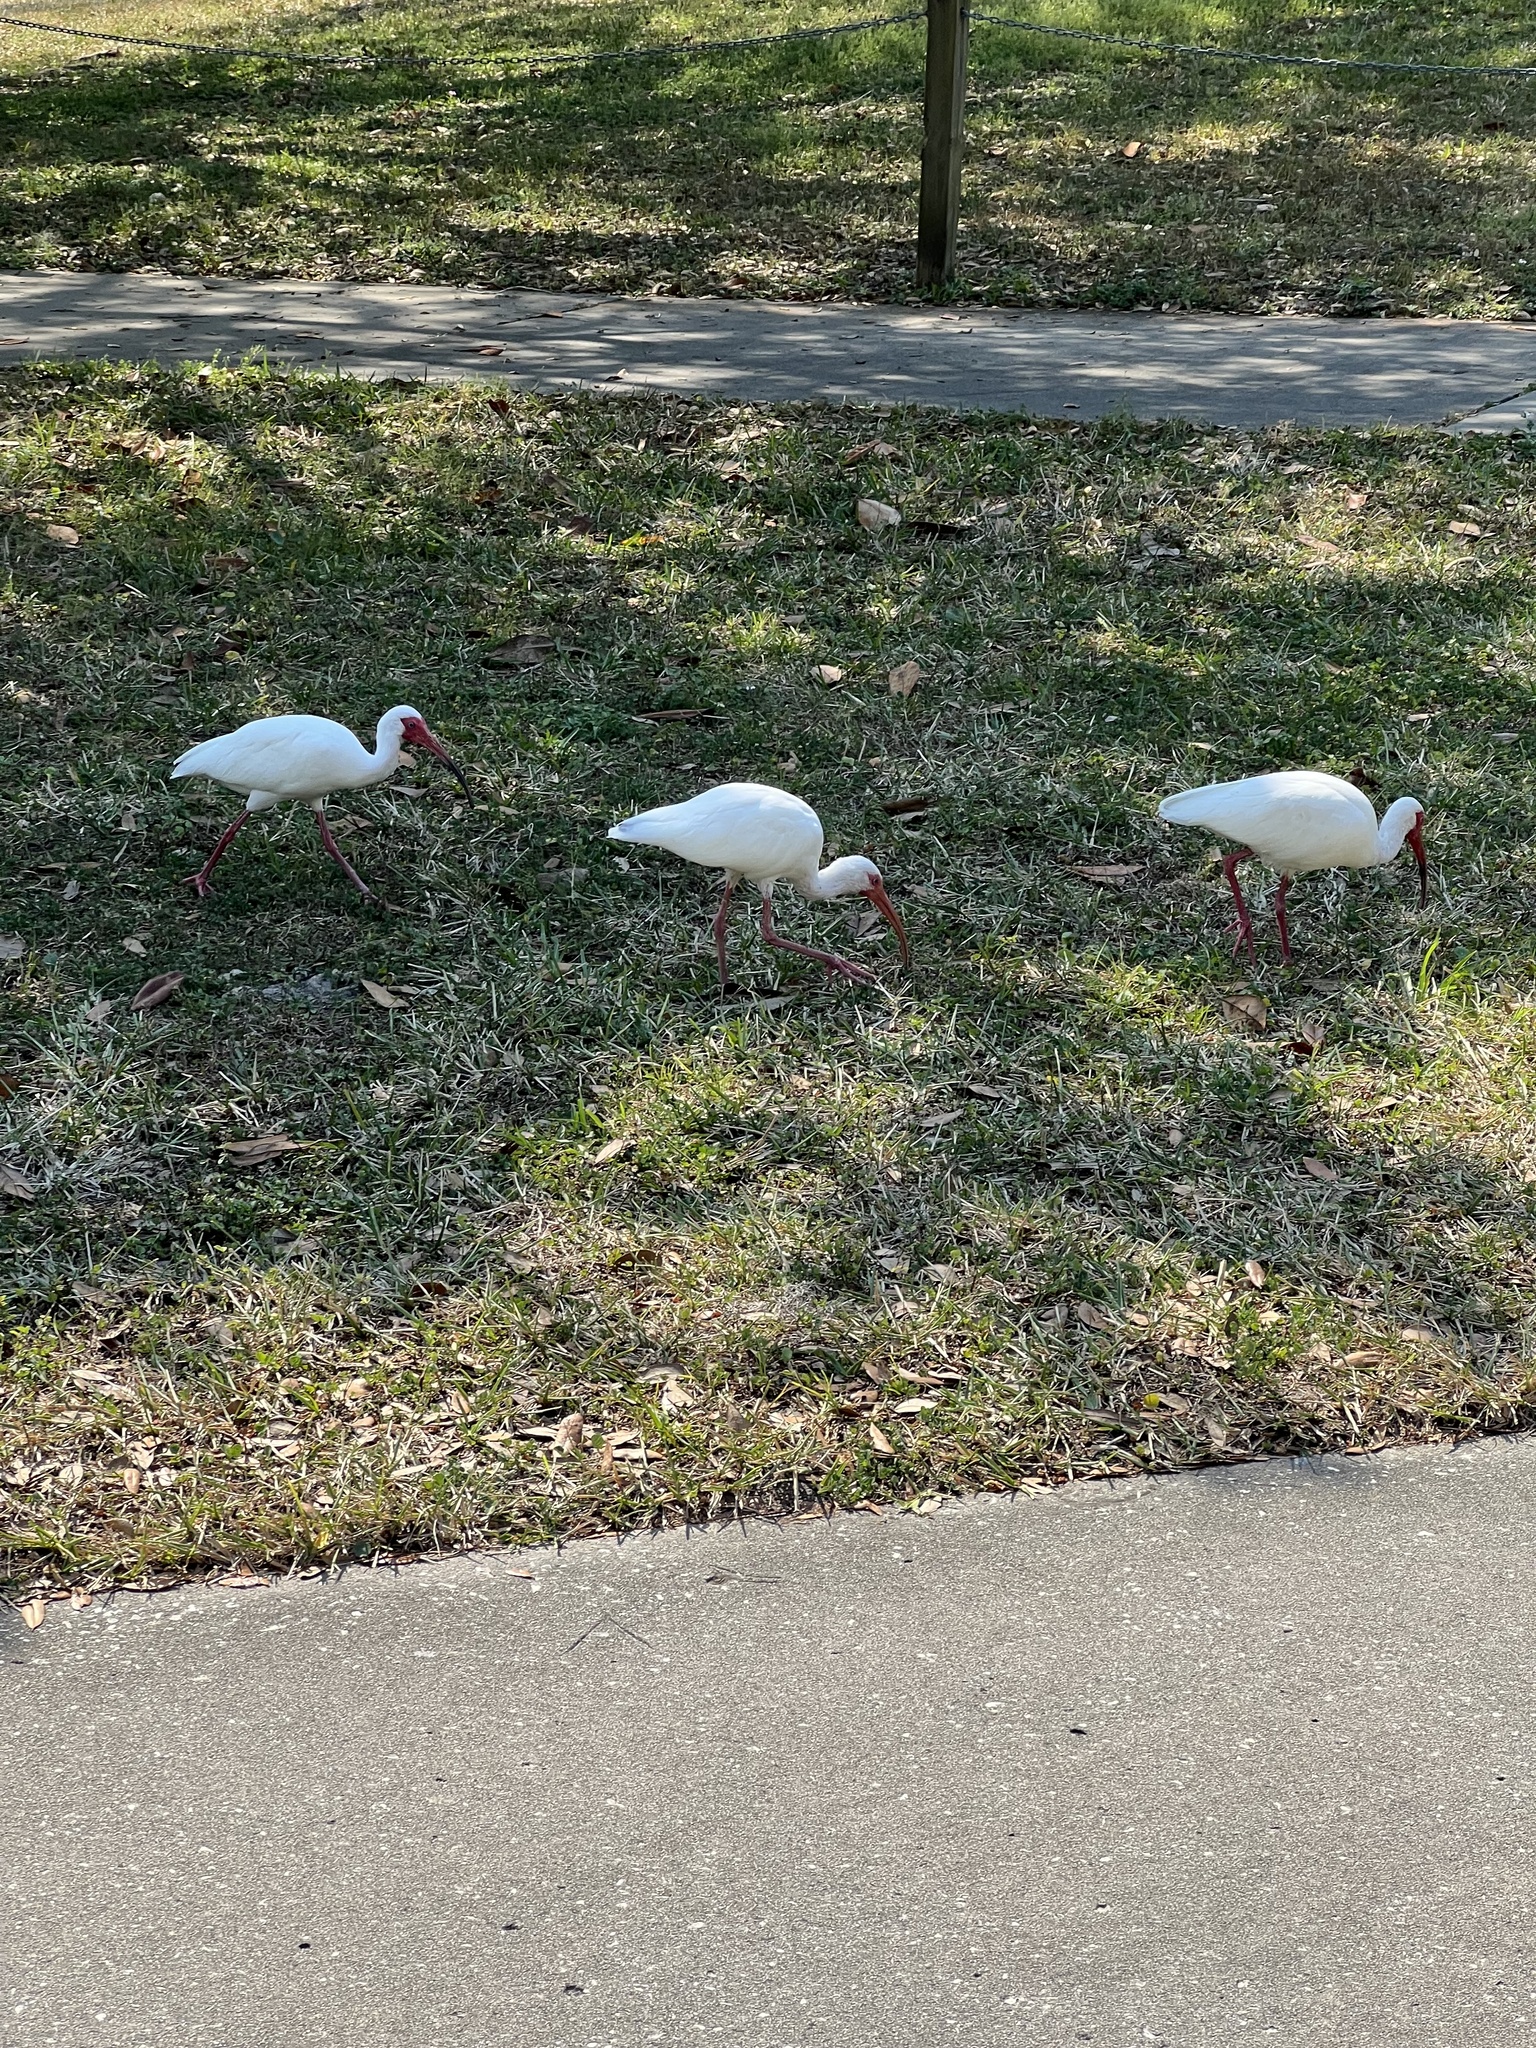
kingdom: Animalia
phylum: Chordata
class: Aves
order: Pelecaniformes
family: Threskiornithidae
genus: Eudocimus
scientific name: Eudocimus albus
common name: White ibis
